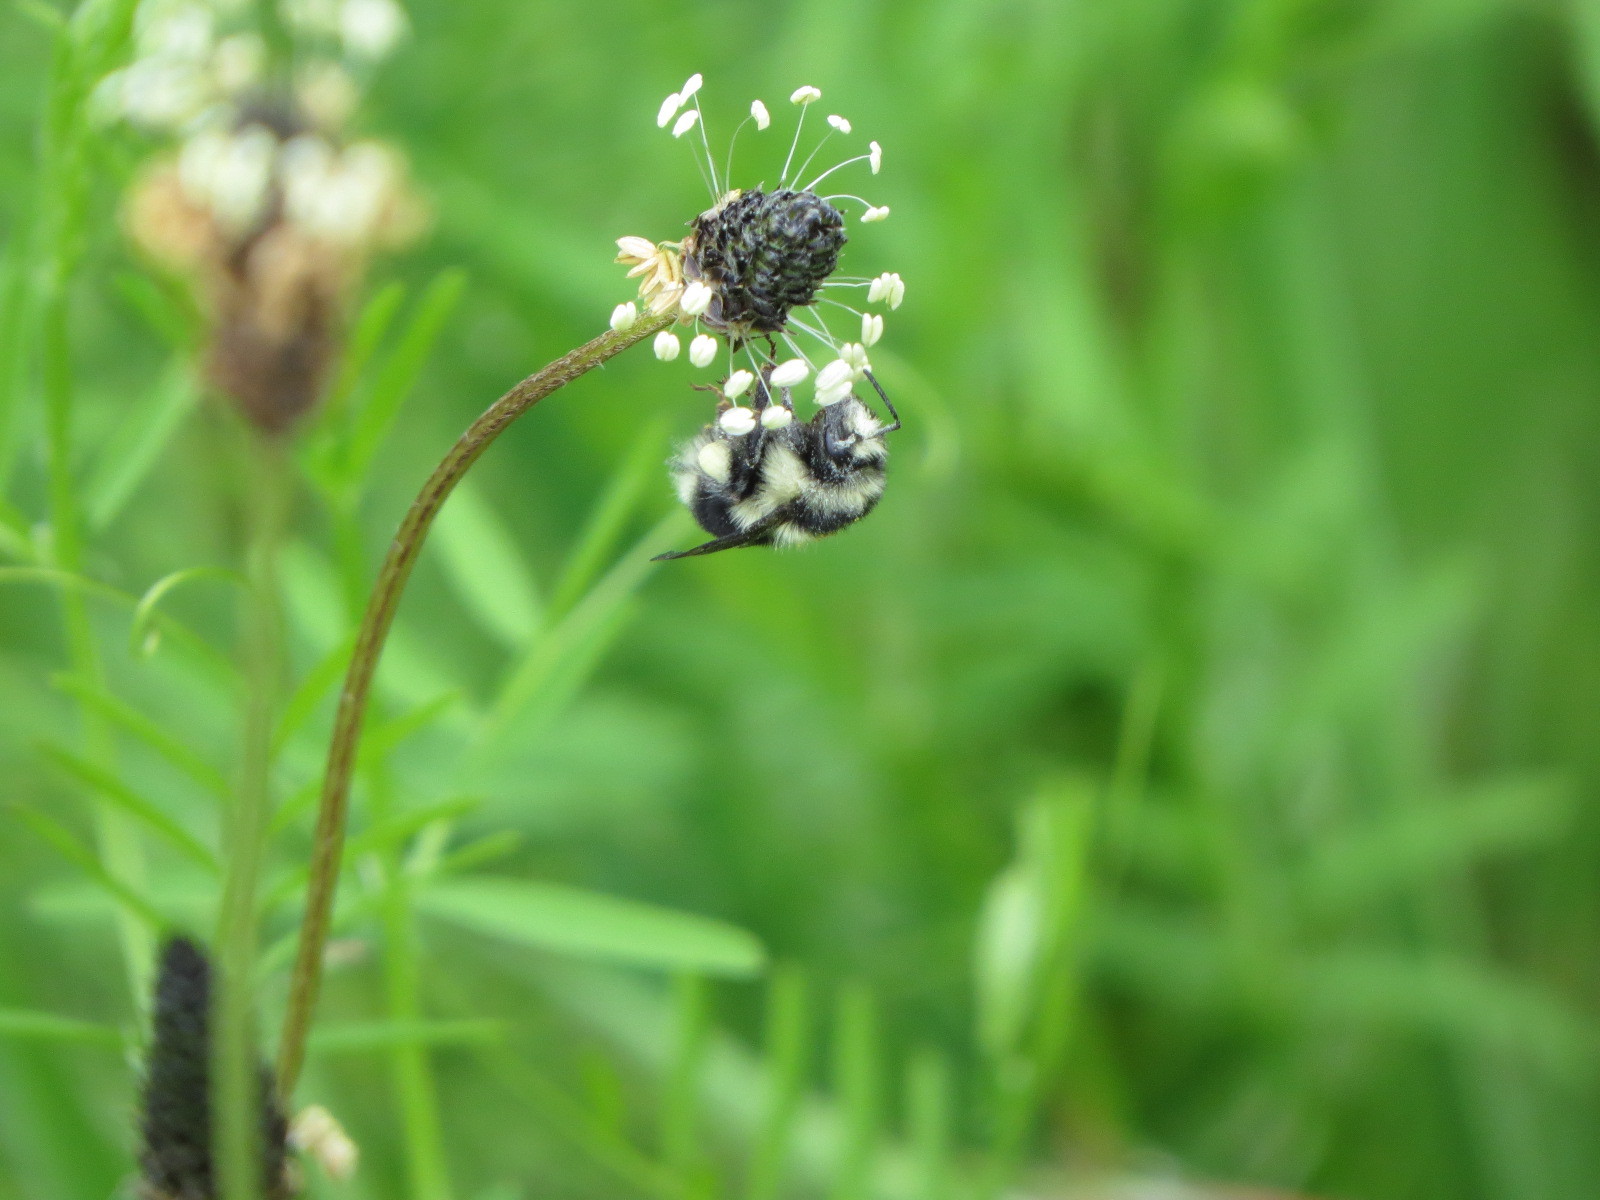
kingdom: Animalia
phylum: Arthropoda
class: Insecta
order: Hymenoptera
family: Apidae
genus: Bombus
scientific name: Bombus melanopygus
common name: Black tail bumble bee
